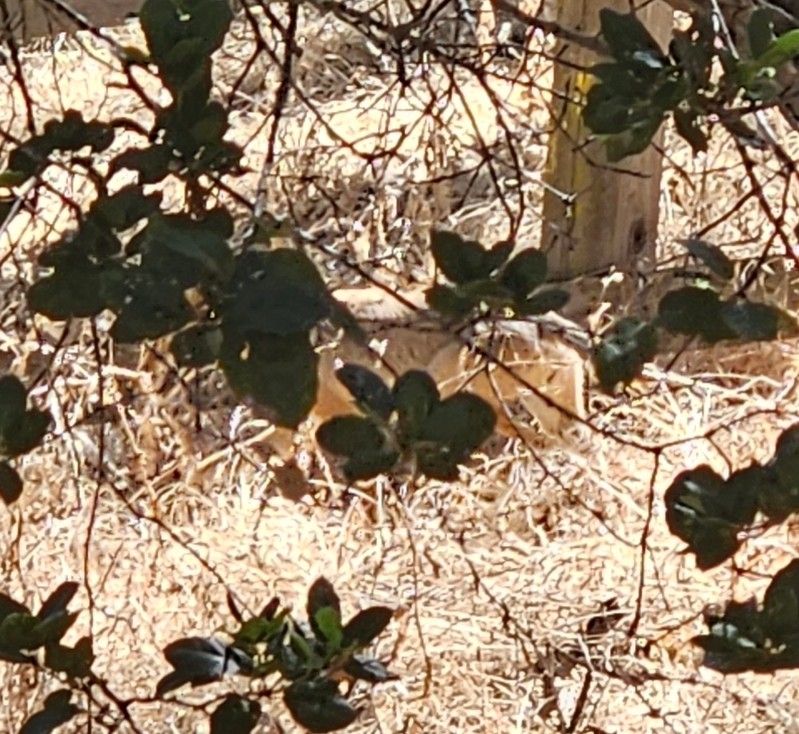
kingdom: Animalia
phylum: Chordata
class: Mammalia
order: Carnivora
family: Canidae
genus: Canis
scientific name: Canis latrans
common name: Coyote
